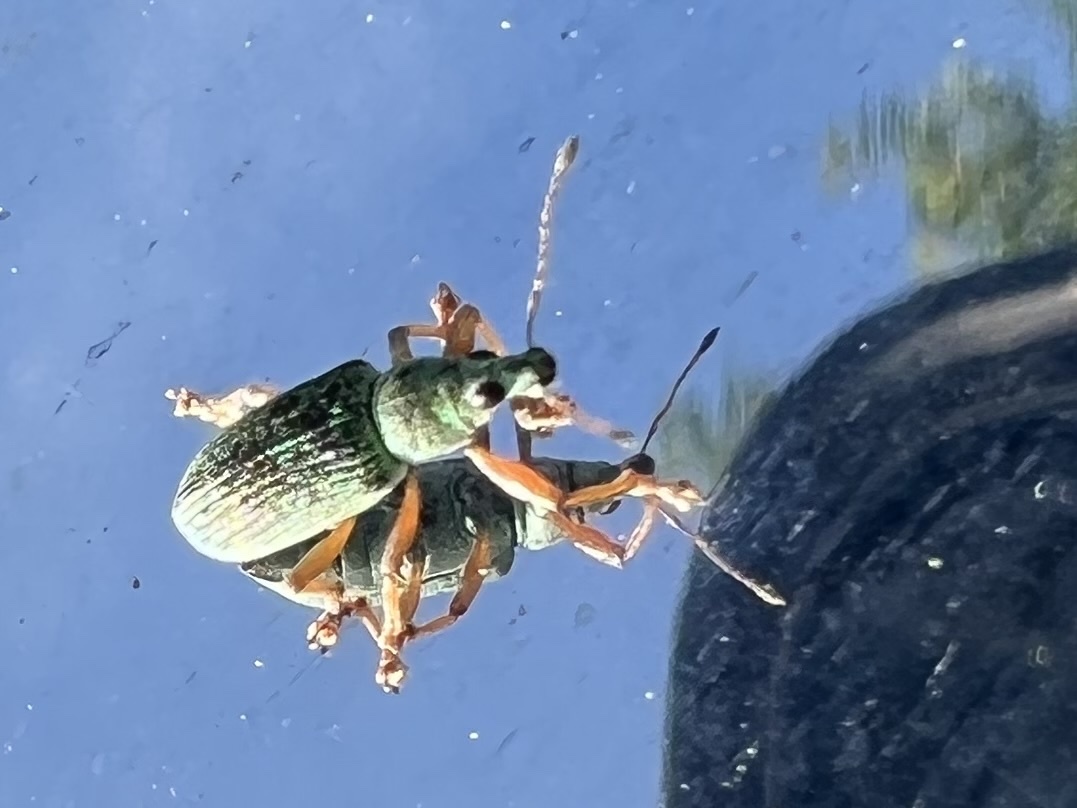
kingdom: Animalia
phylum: Arthropoda
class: Insecta
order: Coleoptera
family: Curculionidae
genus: Polydrusus
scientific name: Polydrusus formosus
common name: Weevil
